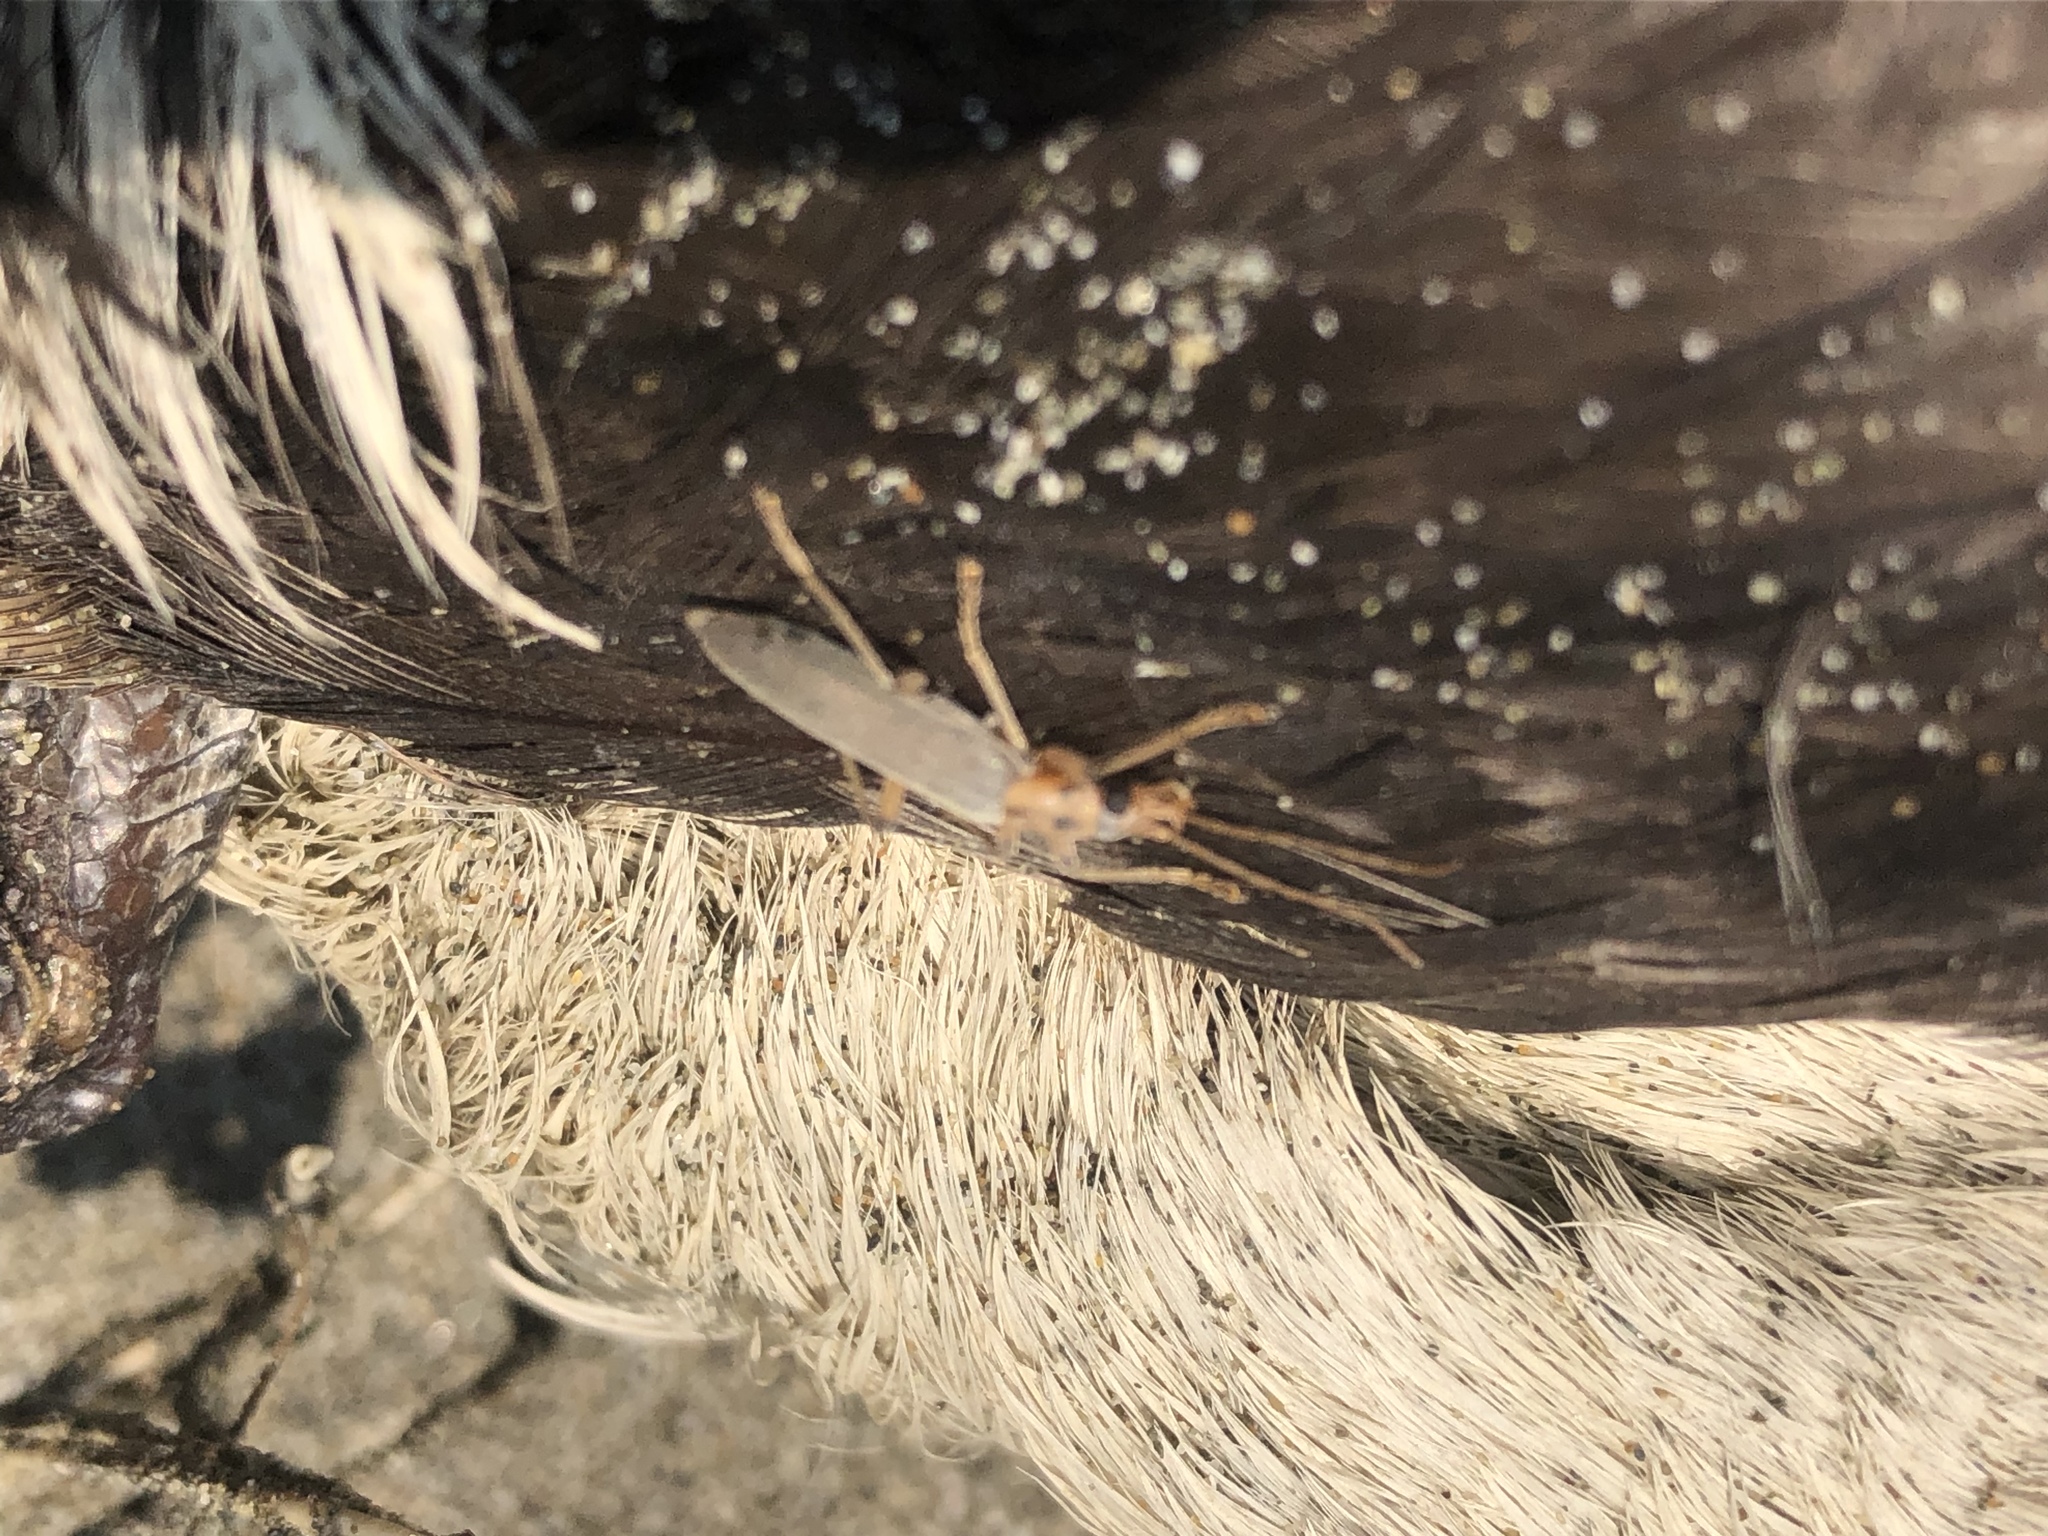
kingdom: Animalia
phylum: Arthropoda
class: Insecta
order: Coleoptera
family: Oedemeridae
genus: Copidita
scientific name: Copidita quadrimaculata
